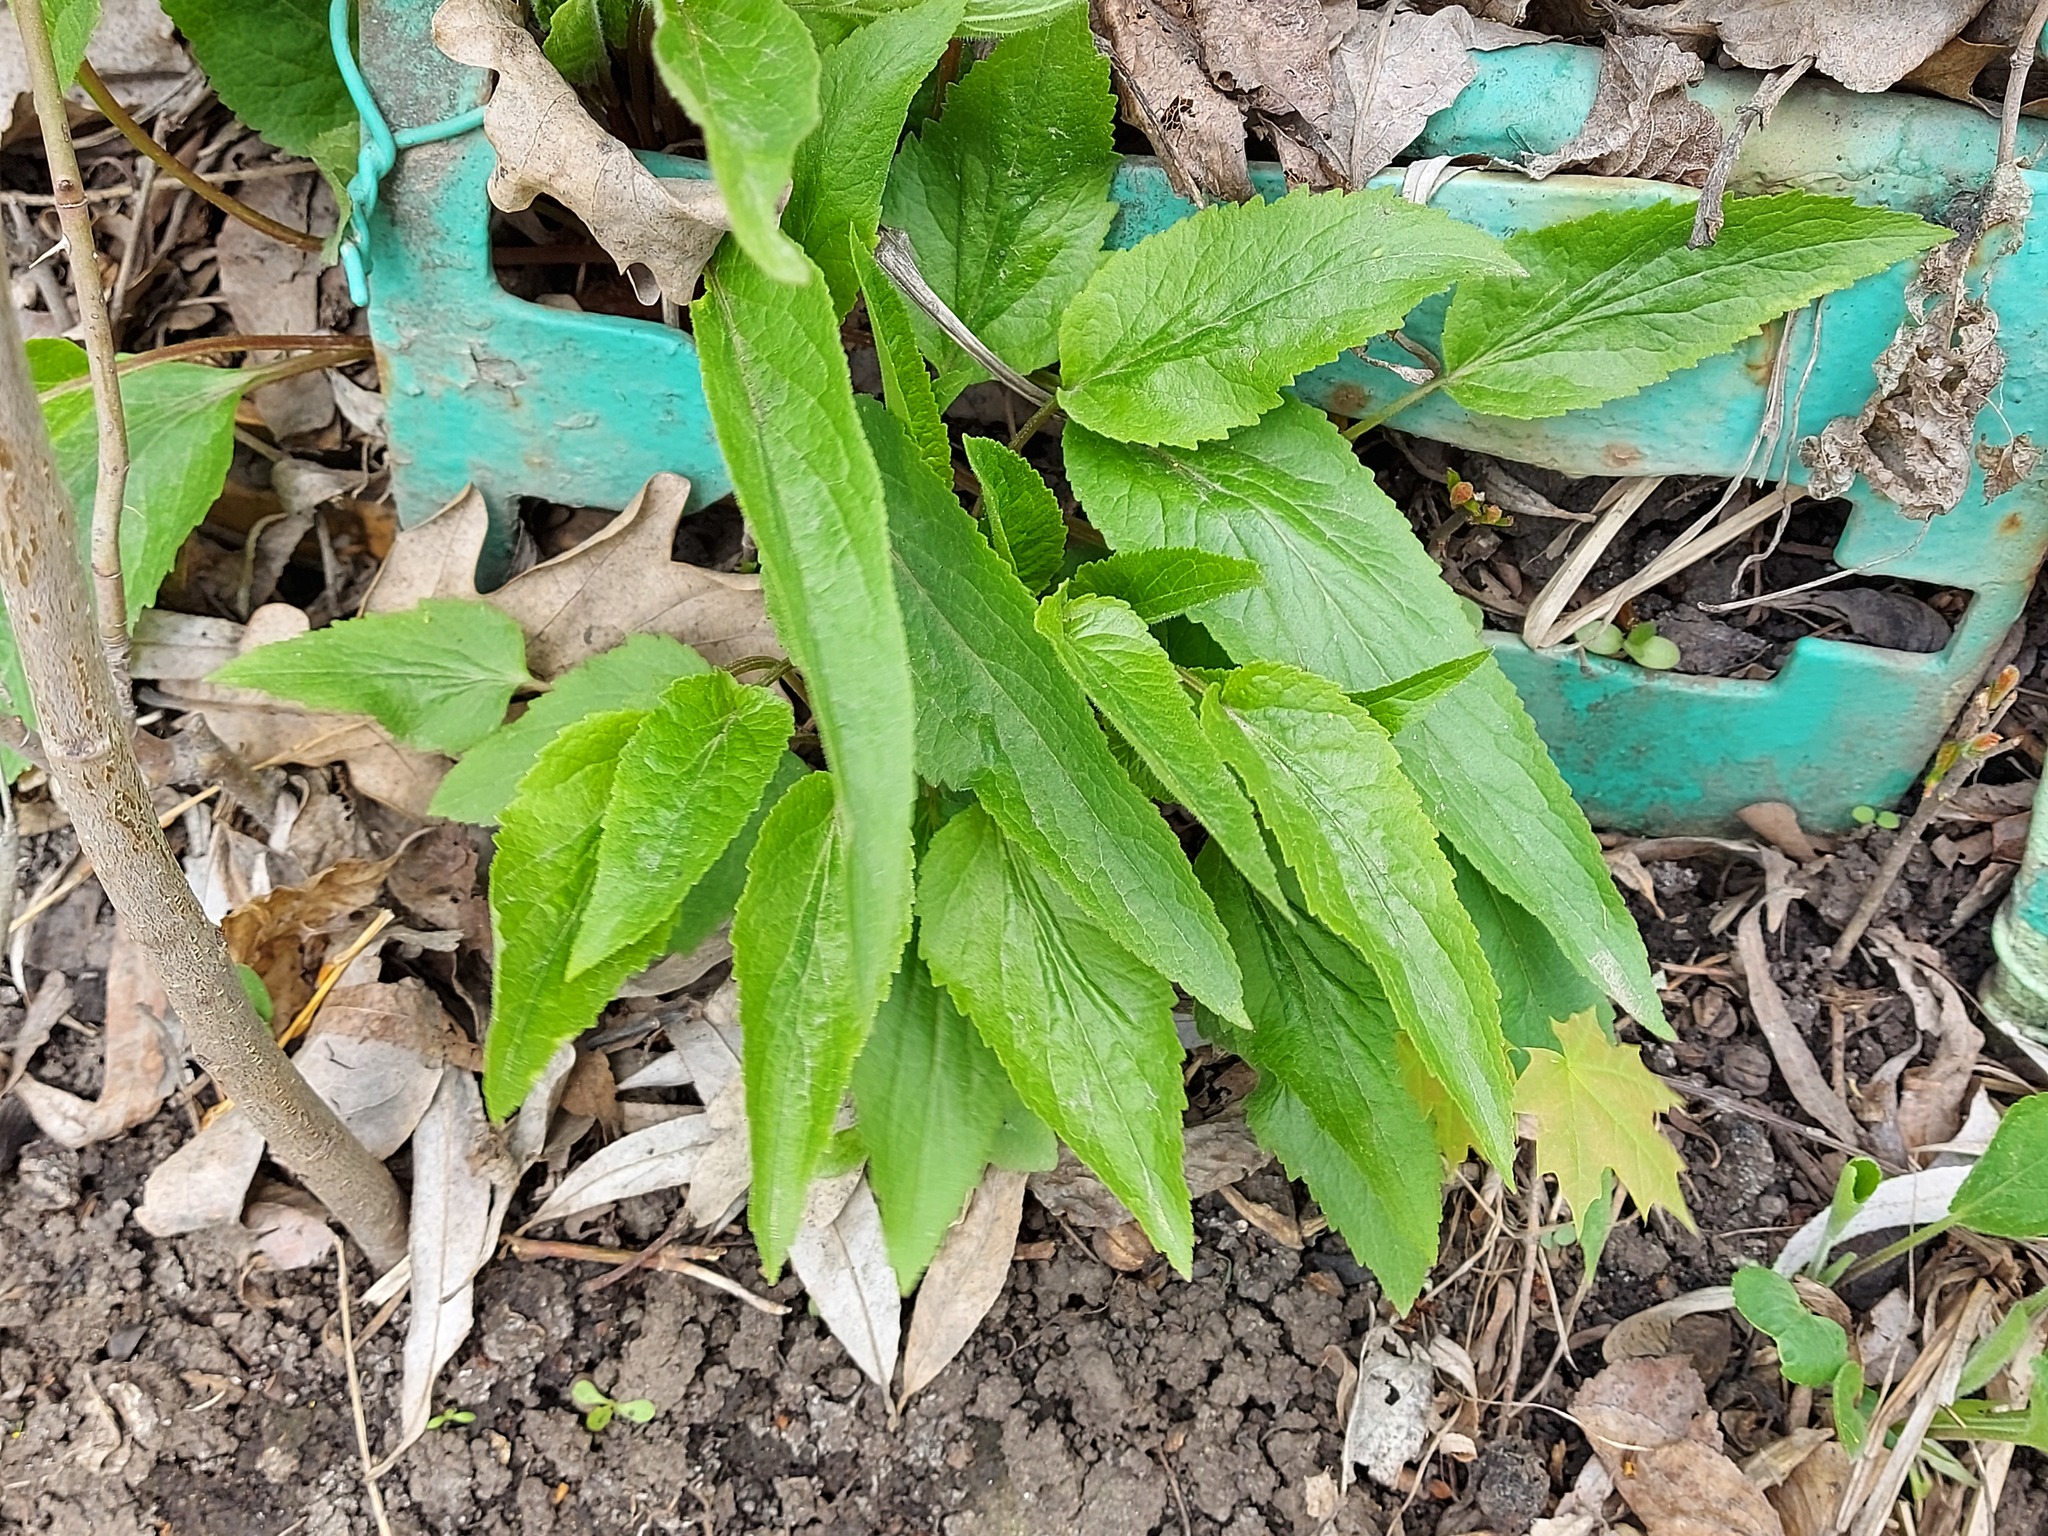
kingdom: Plantae
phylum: Tracheophyta
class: Magnoliopsida
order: Asterales
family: Campanulaceae
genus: Campanula
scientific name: Campanula rapunculoides
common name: Creeping bellflower
